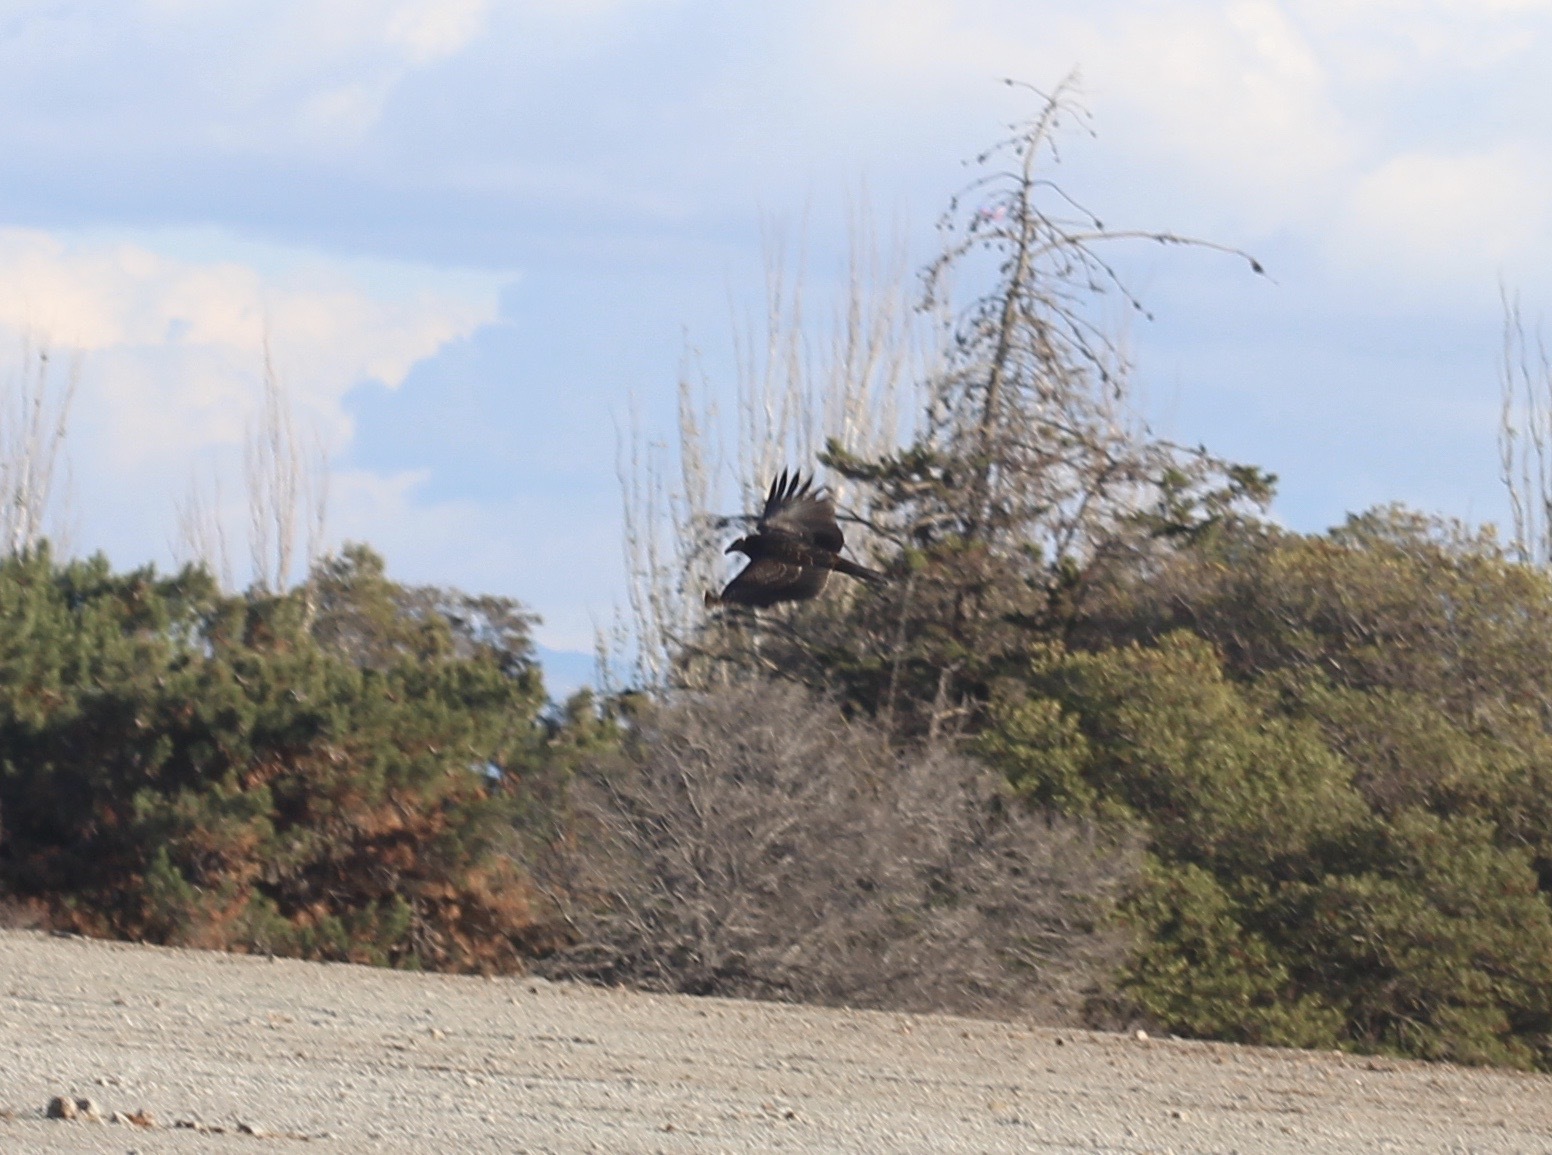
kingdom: Animalia
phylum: Chordata
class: Aves
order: Accipitriformes
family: Cathartidae
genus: Cathartes
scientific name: Cathartes aura
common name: Turkey vulture
